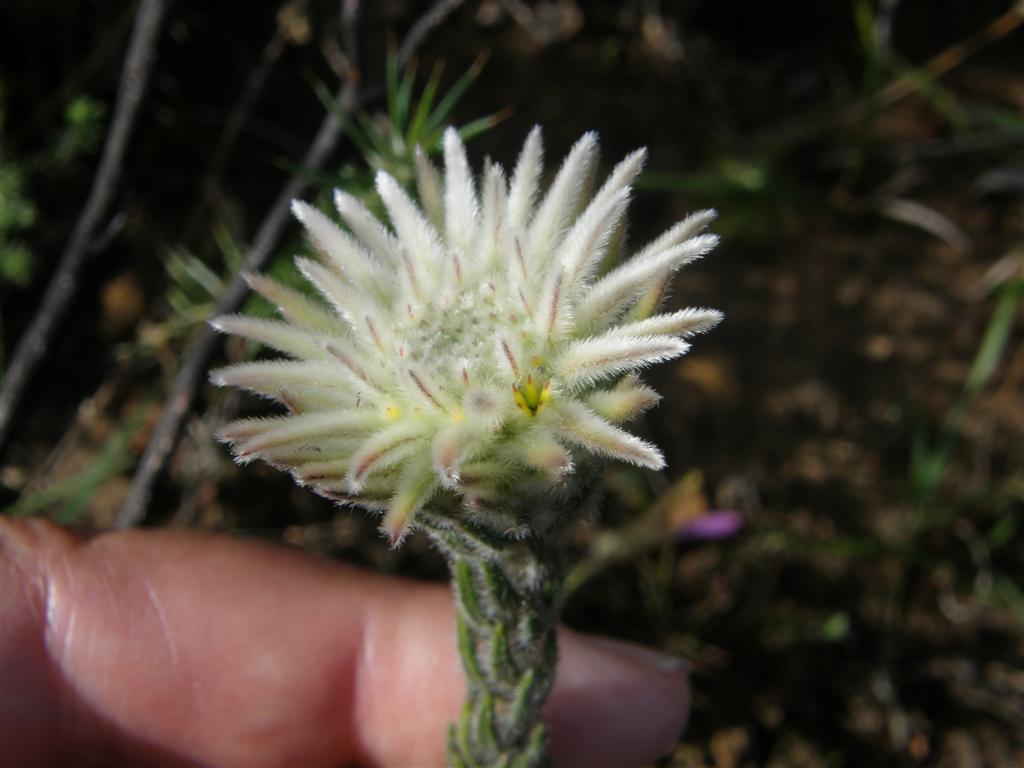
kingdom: Plantae
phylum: Tracheophyta
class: Magnoliopsida
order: Rosales
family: Rhamnaceae
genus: Phylica
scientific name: Phylica calcarata
